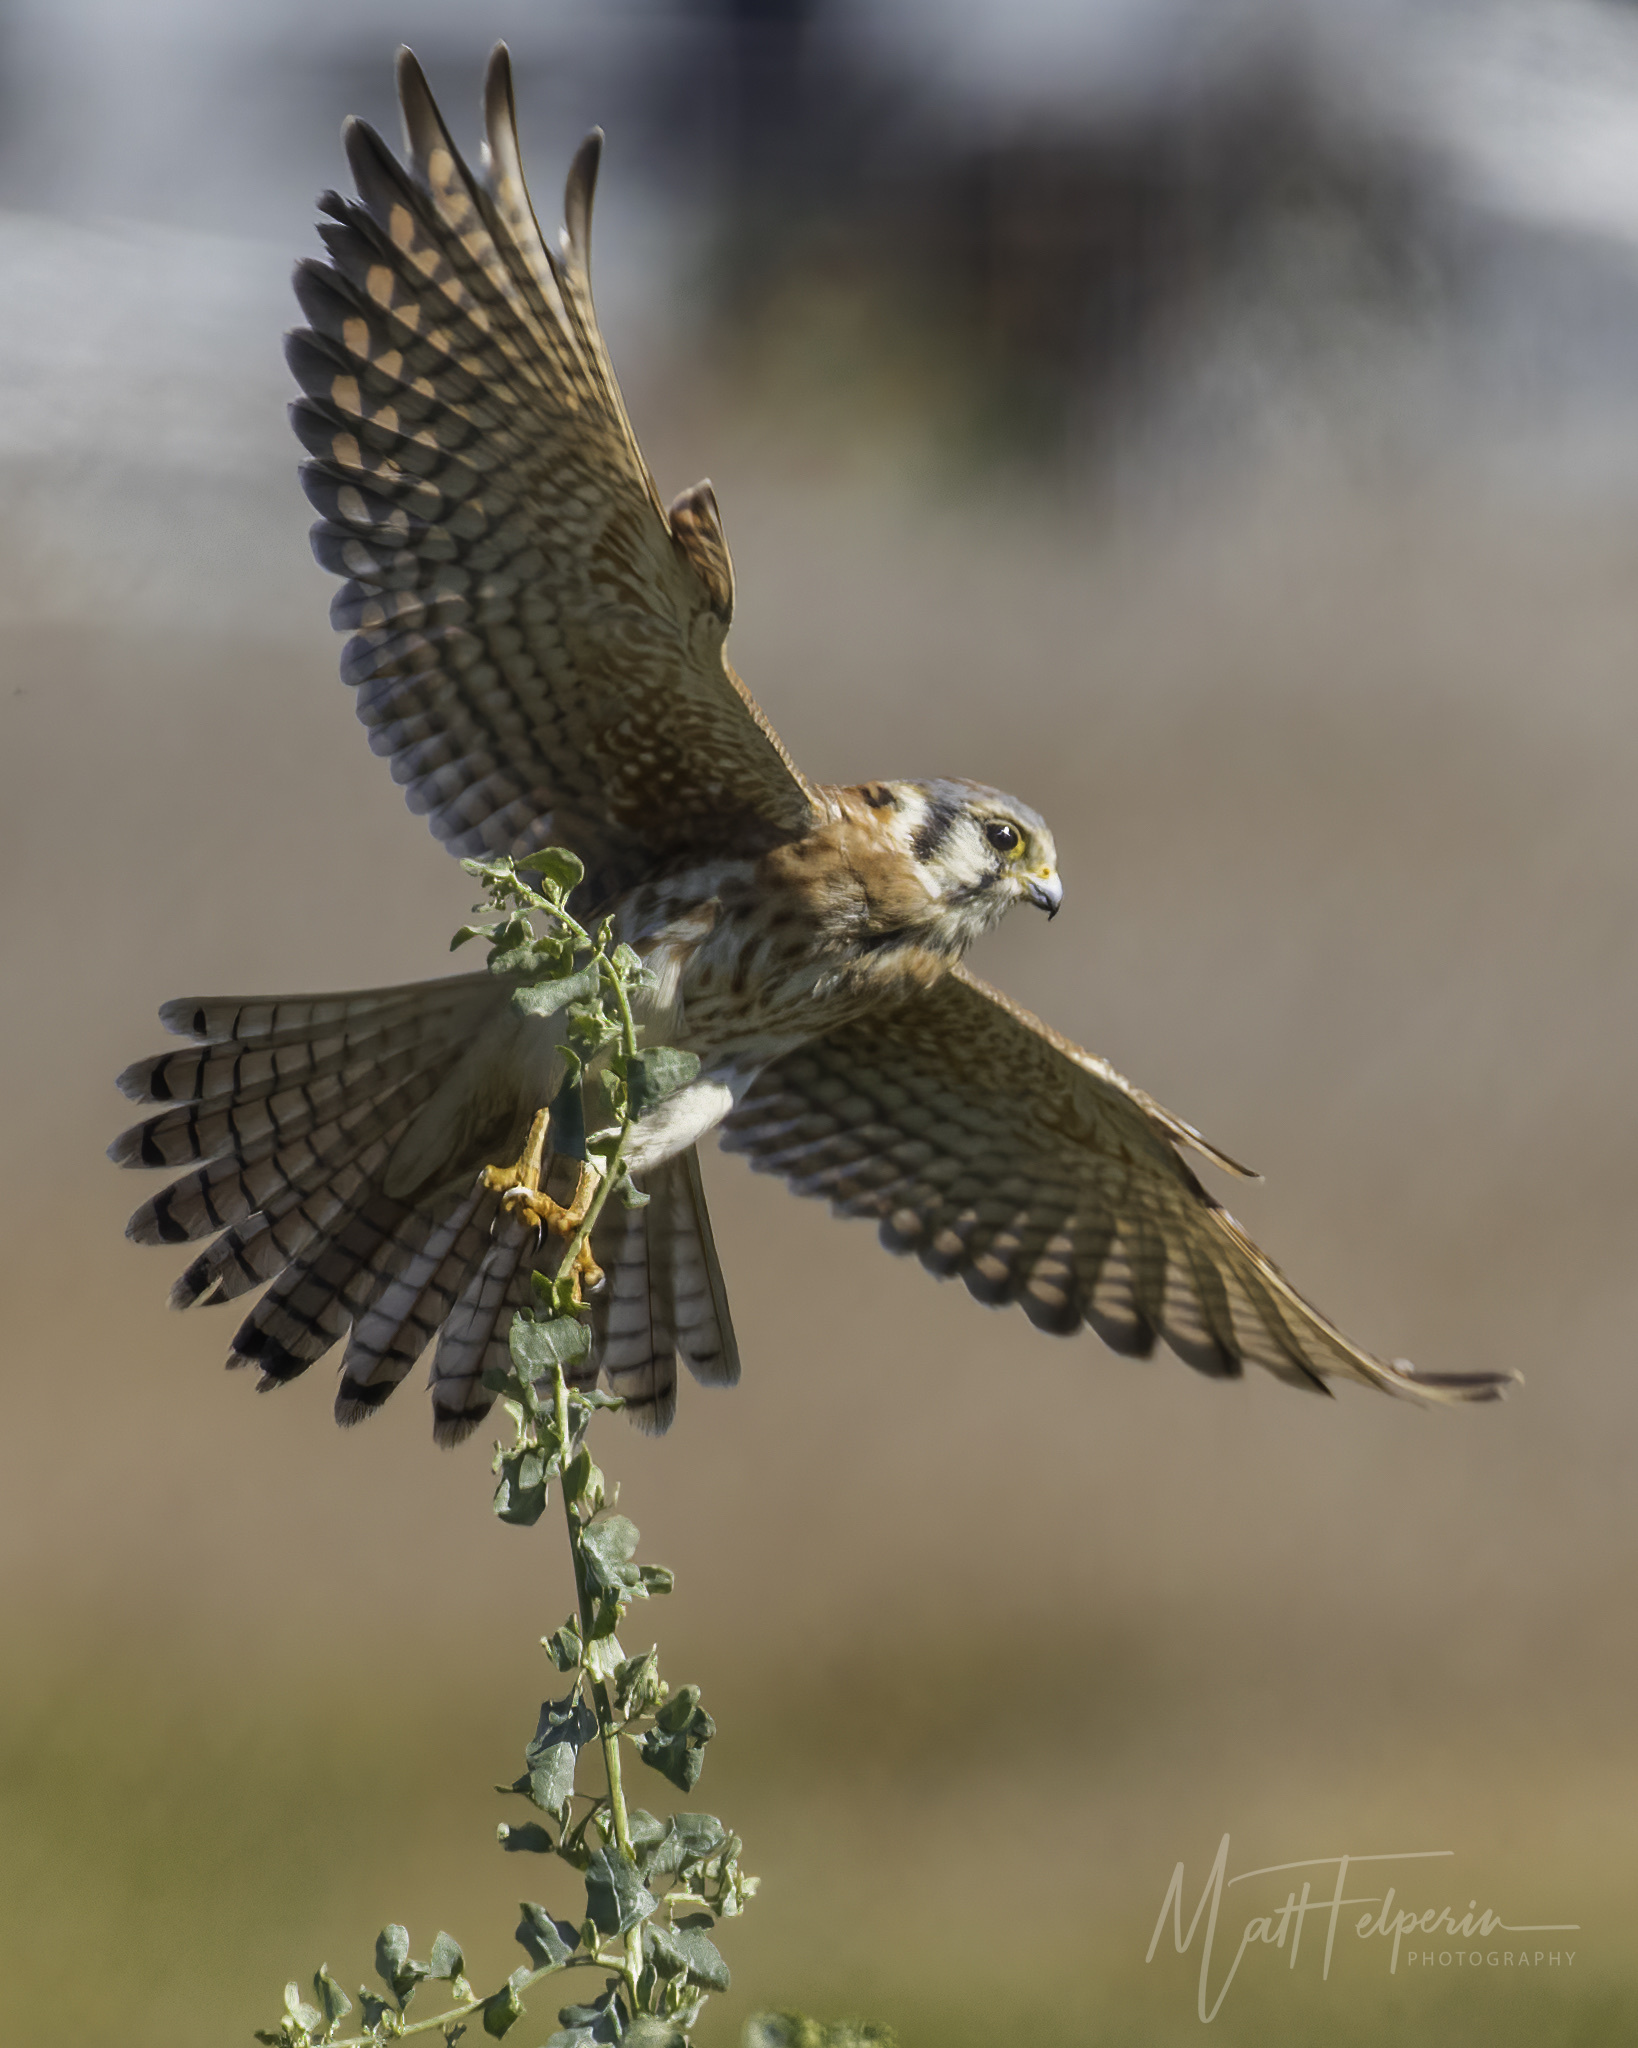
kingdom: Animalia
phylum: Chordata
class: Aves
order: Falconiformes
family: Falconidae
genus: Falco
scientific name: Falco sparverius
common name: American kestrel
